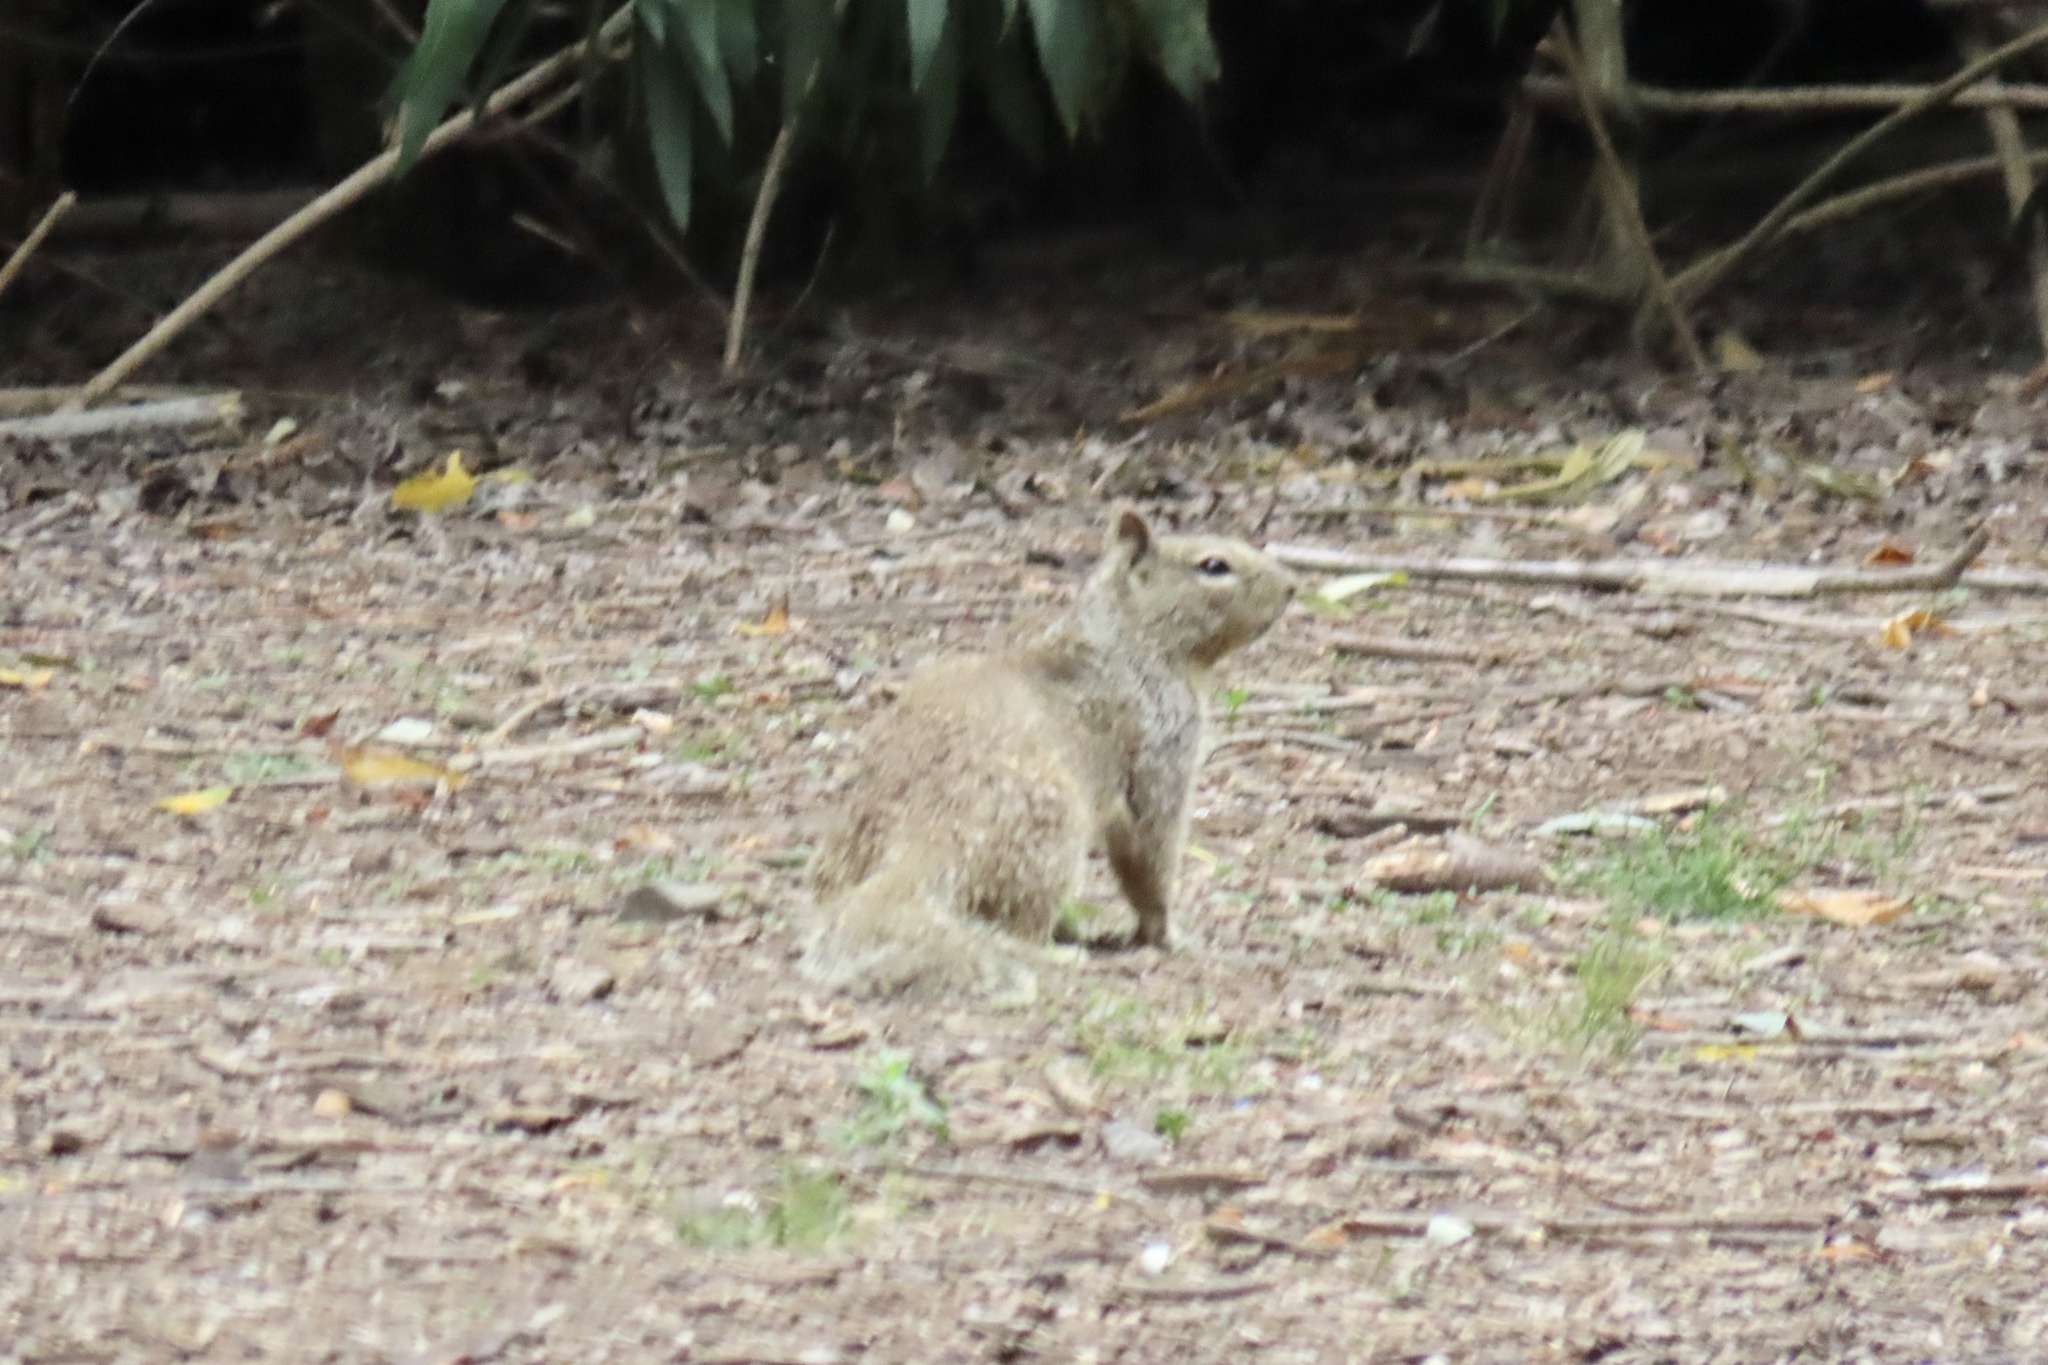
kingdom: Animalia
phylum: Chordata
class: Mammalia
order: Rodentia
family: Sciuridae
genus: Otospermophilus
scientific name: Otospermophilus beecheyi
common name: California ground squirrel
